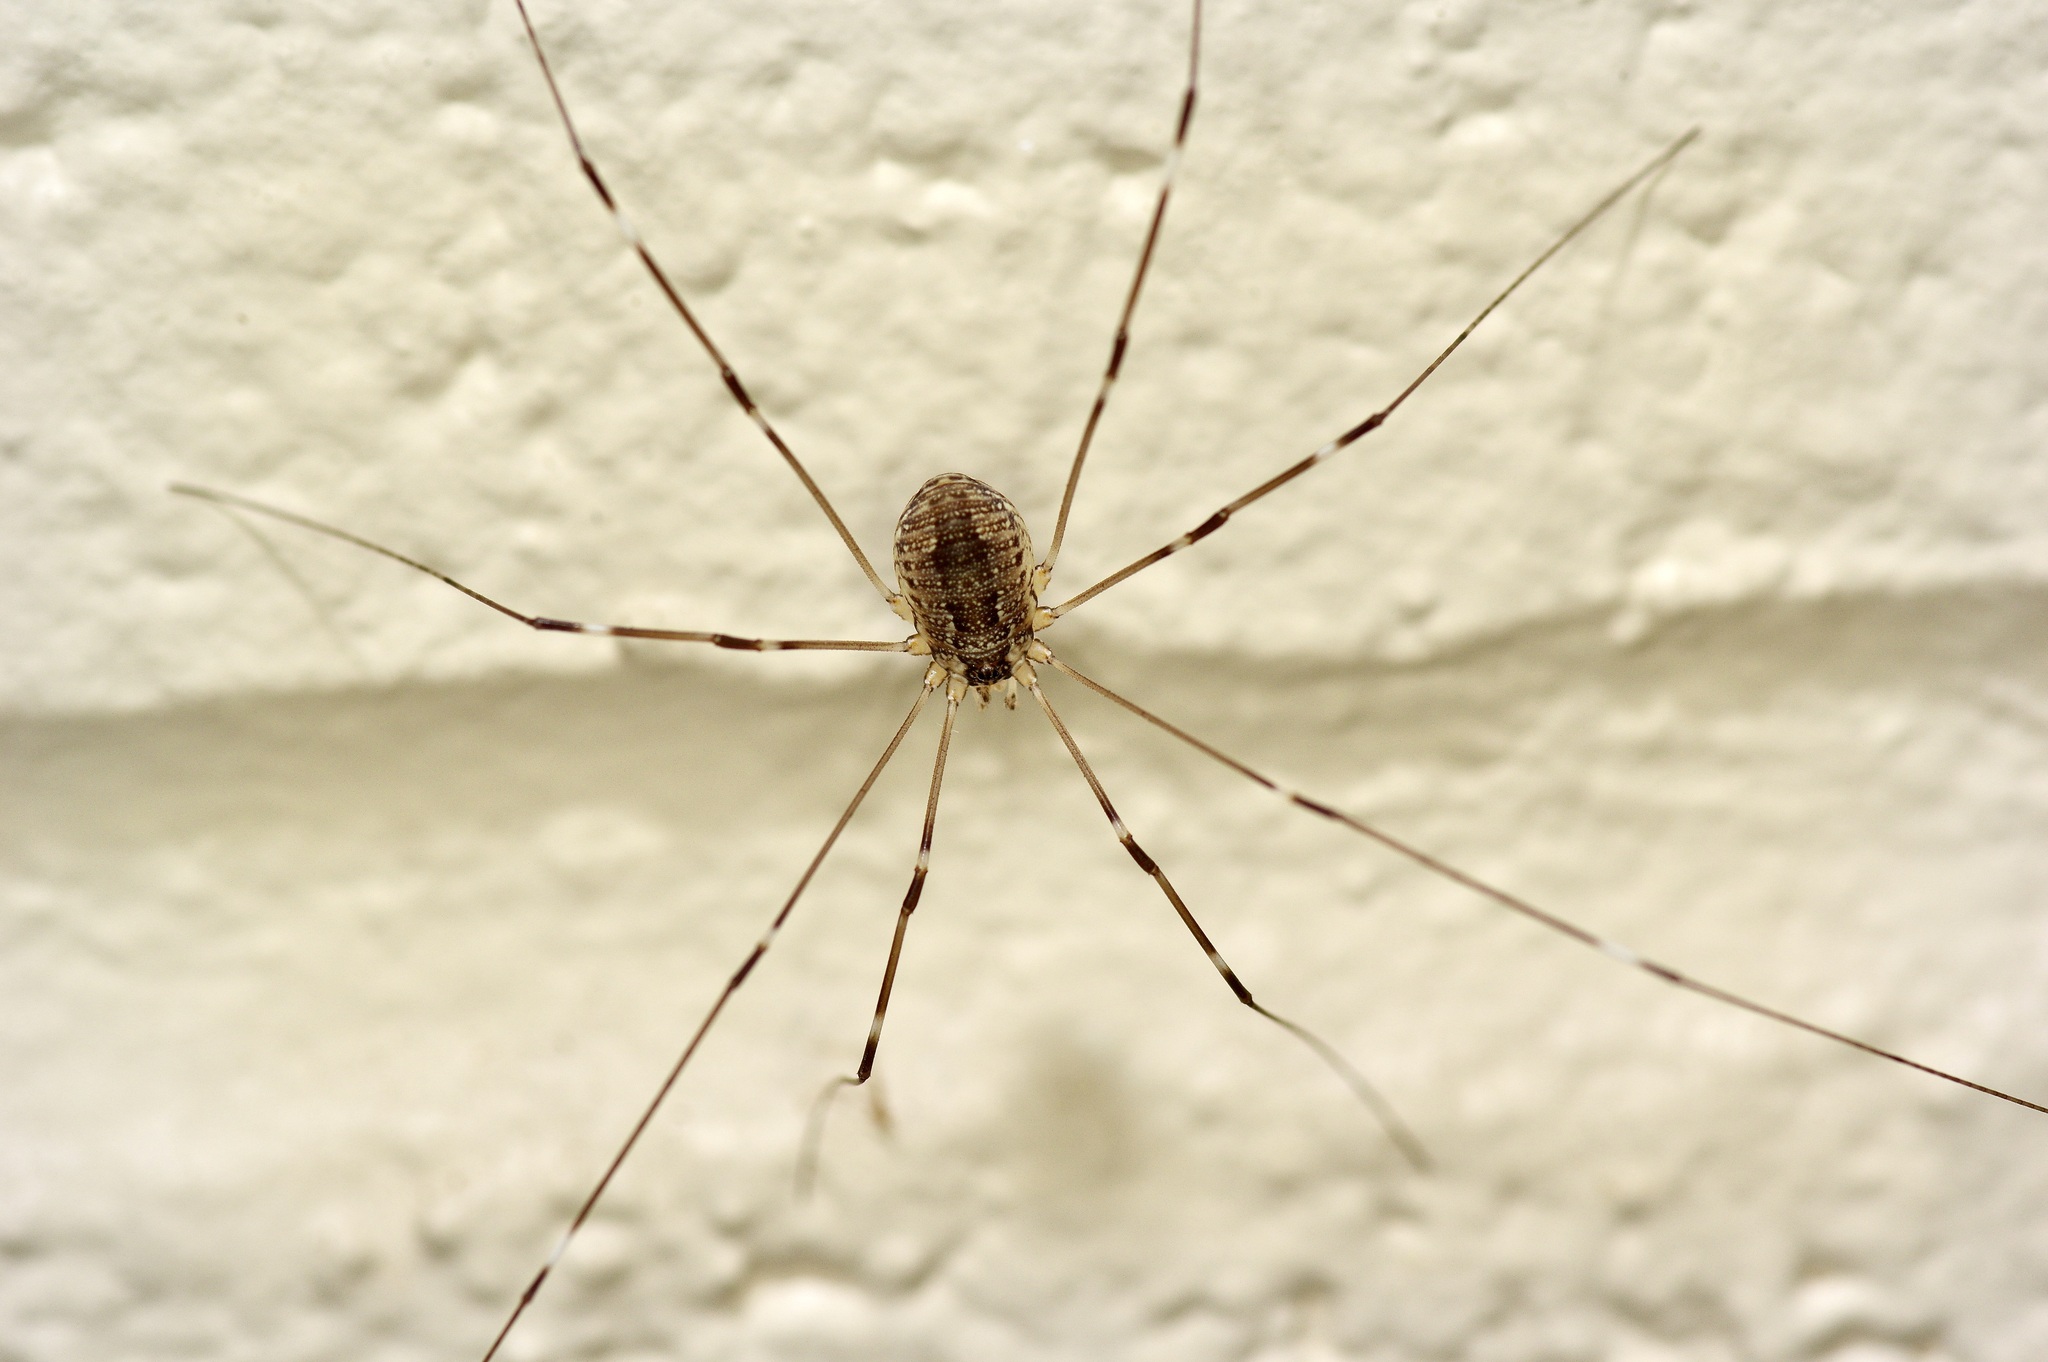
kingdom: Animalia
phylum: Arthropoda
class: Arachnida
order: Opiliones
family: Sclerosomatidae
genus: Leiobunum
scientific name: Leiobunum townsendi
